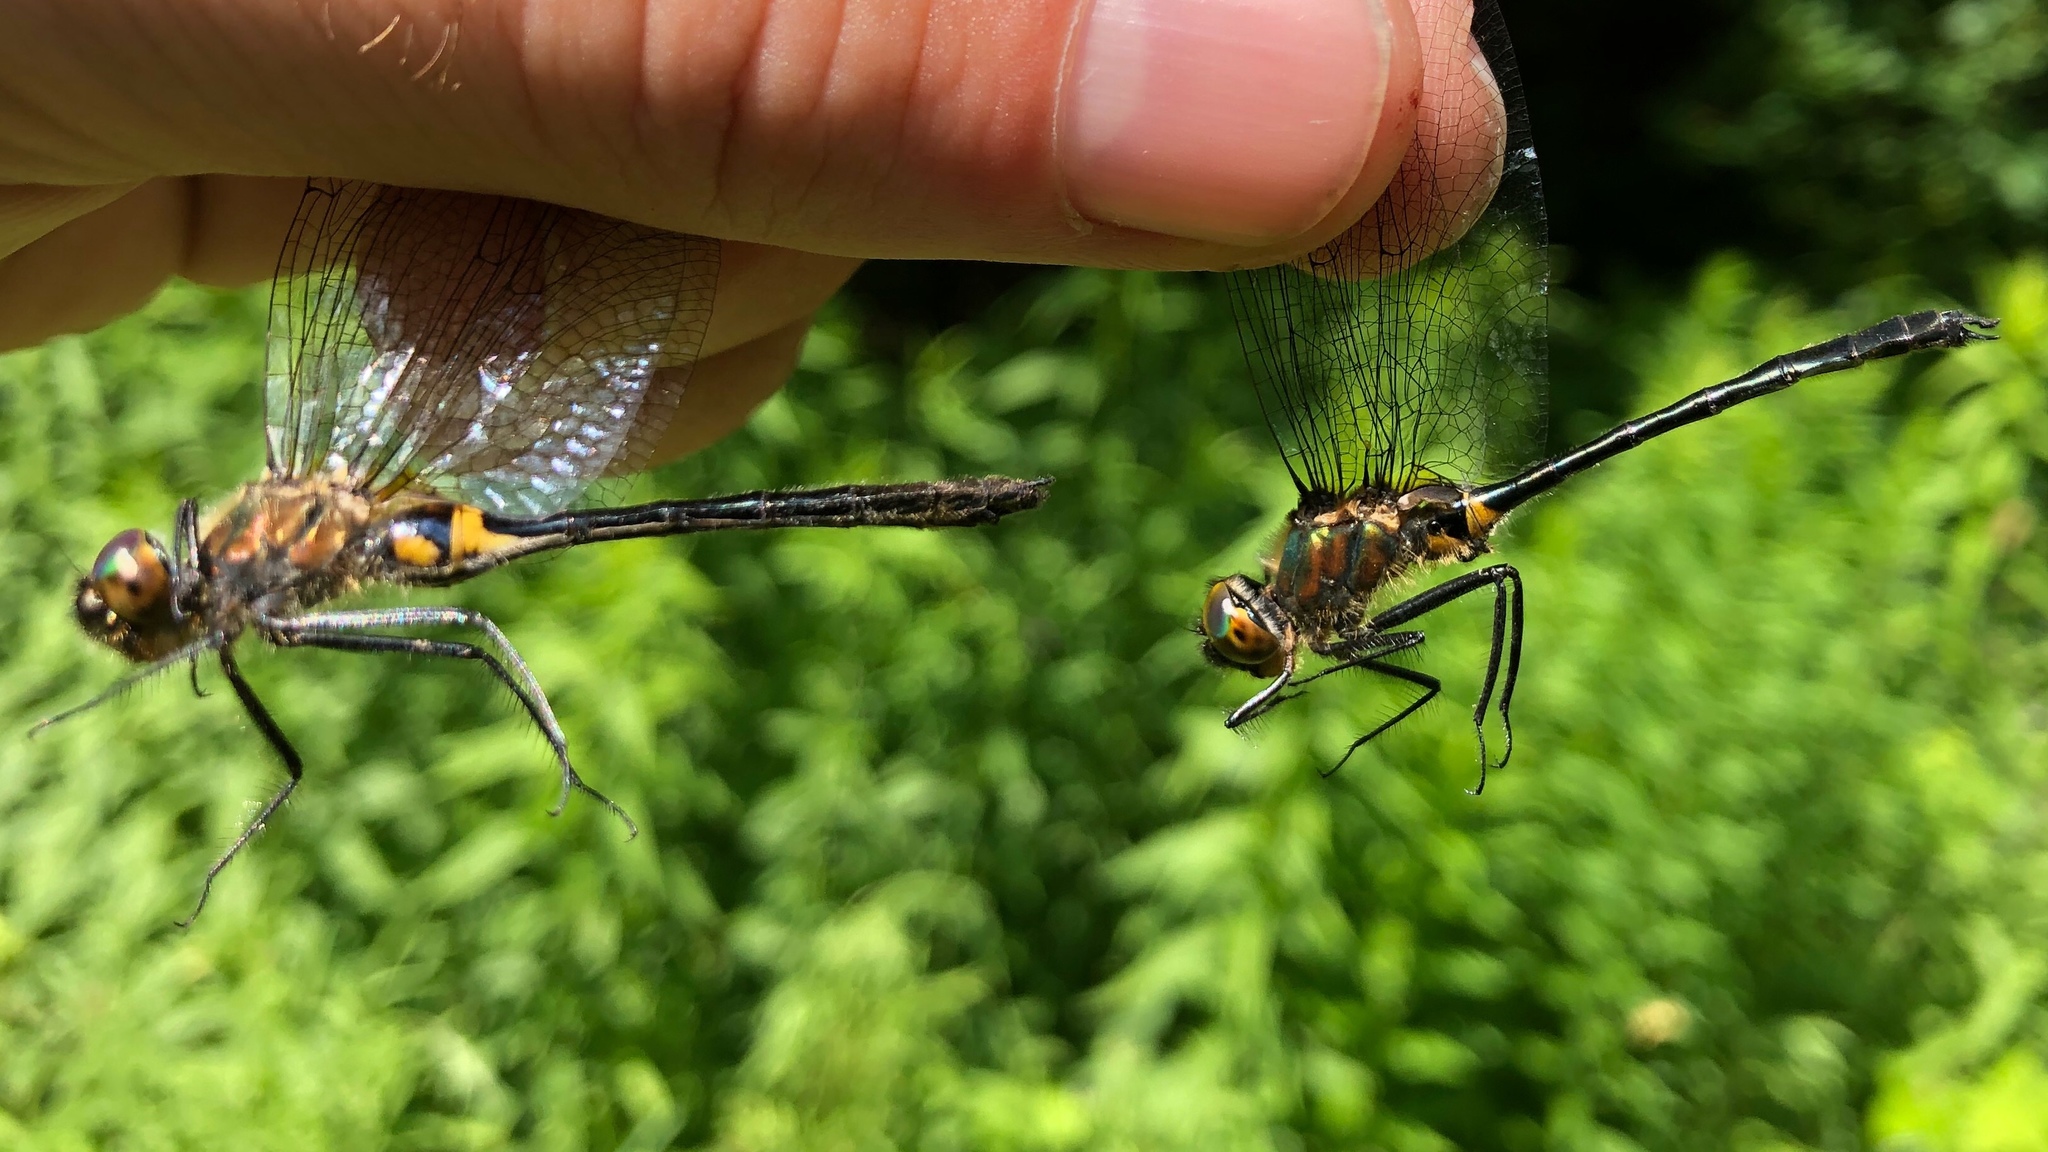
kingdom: Animalia
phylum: Arthropoda
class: Insecta
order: Odonata
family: Corduliidae
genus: Dorocordulia
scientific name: Dorocordulia libera
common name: Racket-tailed emerald
